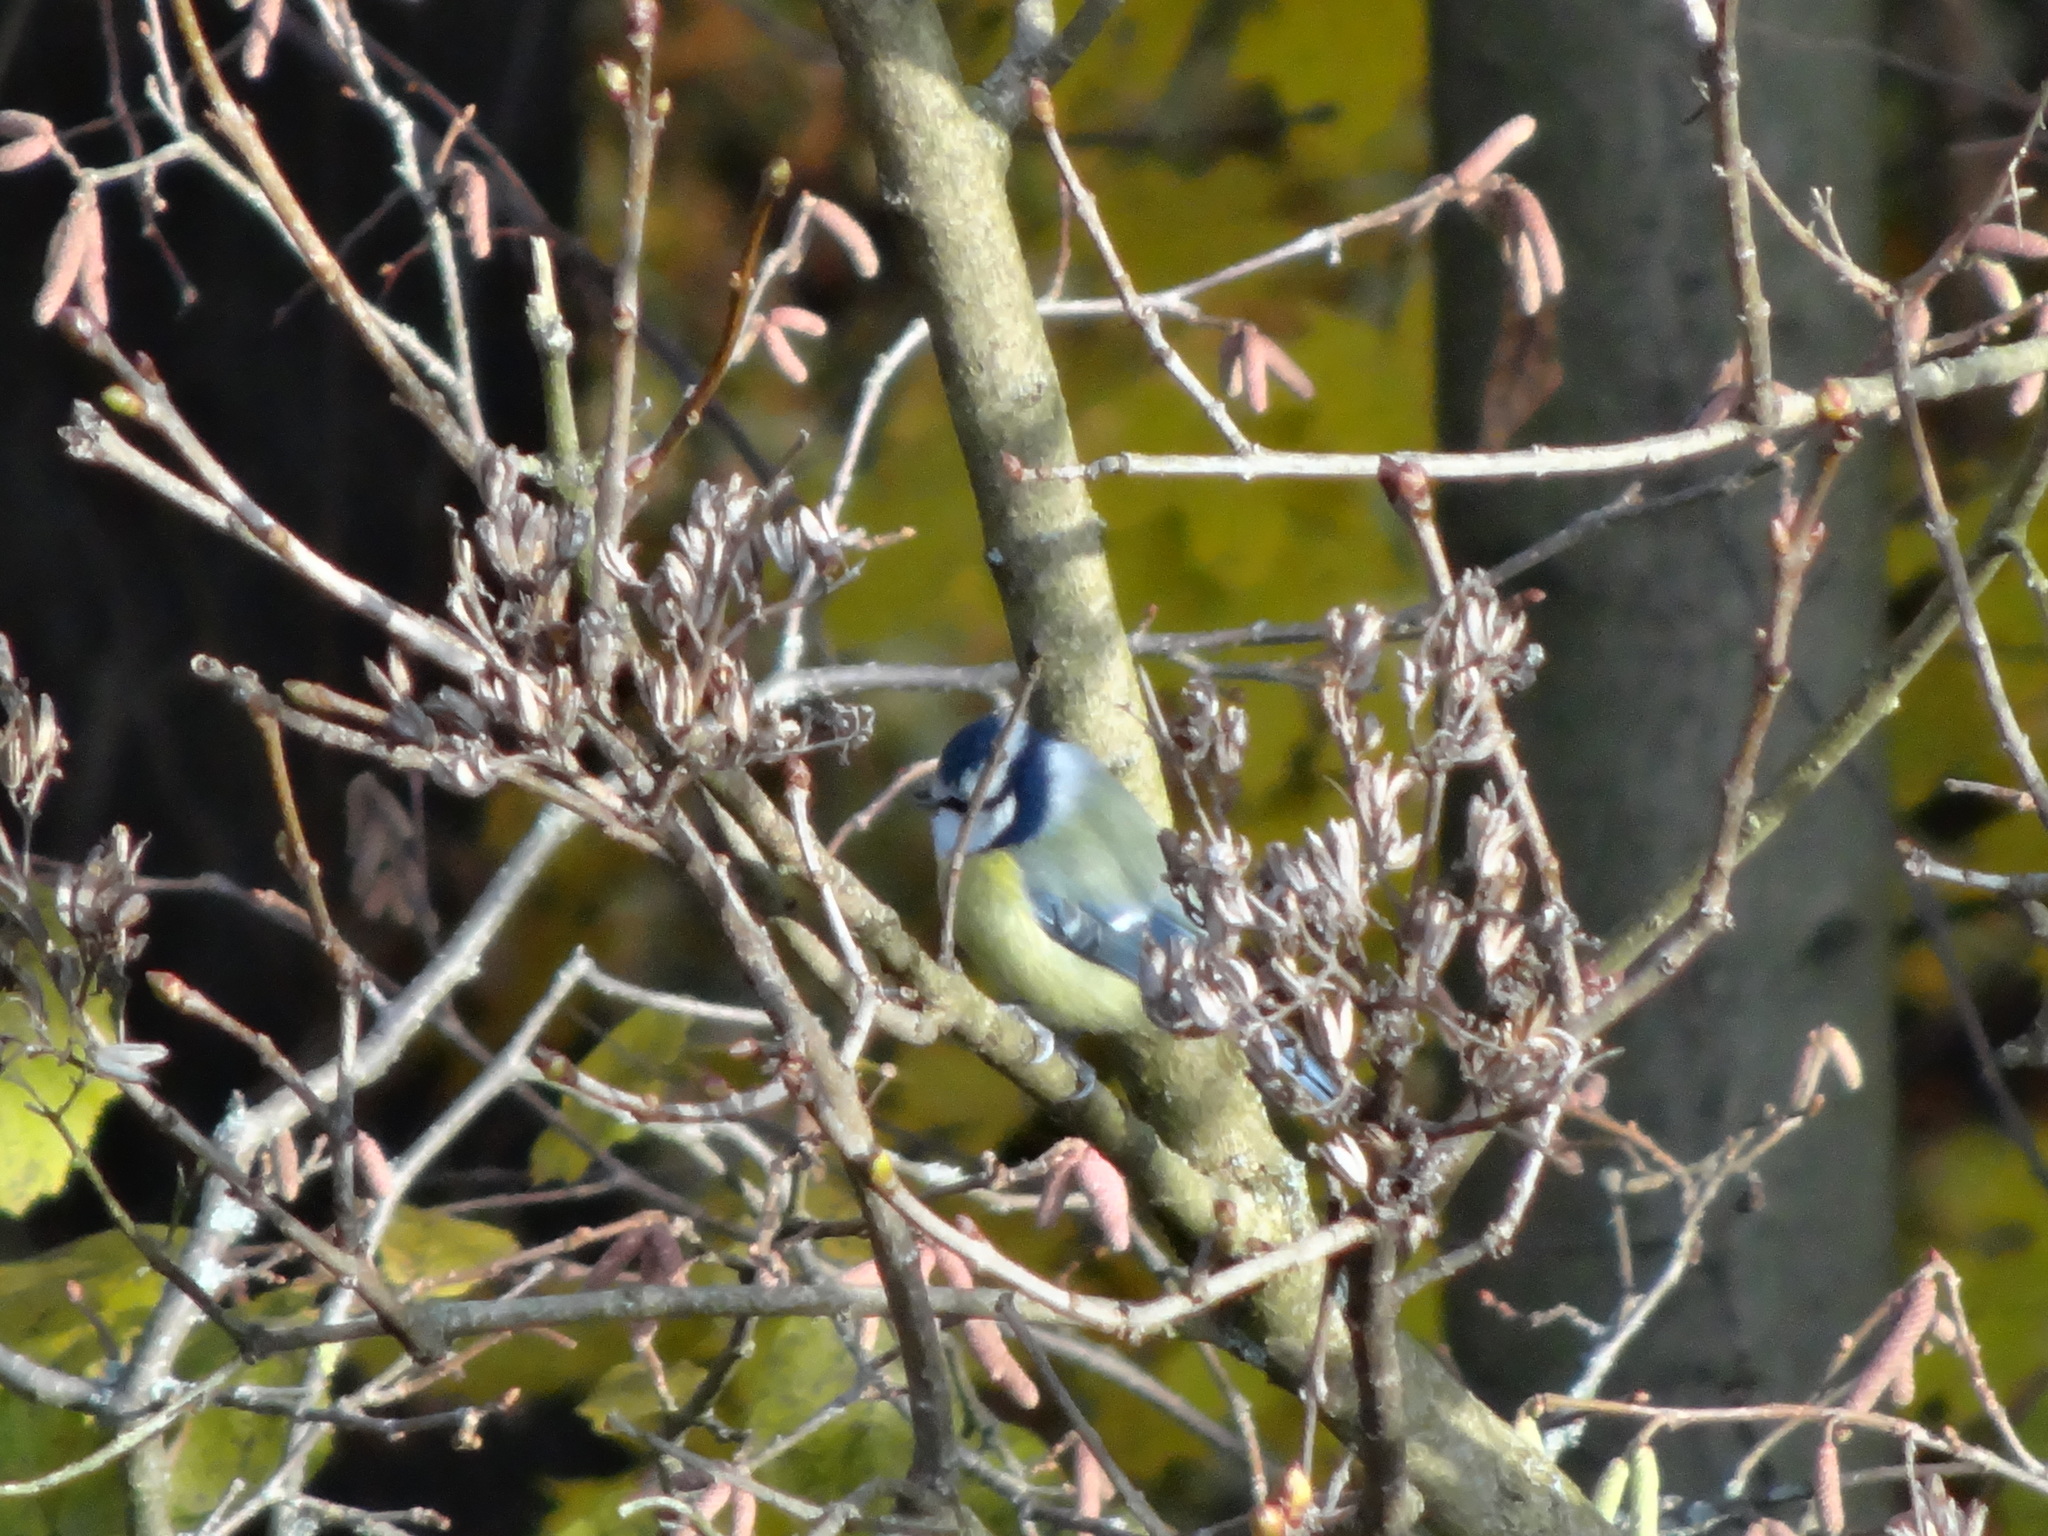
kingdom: Animalia
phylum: Chordata
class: Aves
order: Passeriformes
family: Paridae
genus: Cyanistes
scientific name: Cyanistes caeruleus
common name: Eurasian blue tit
